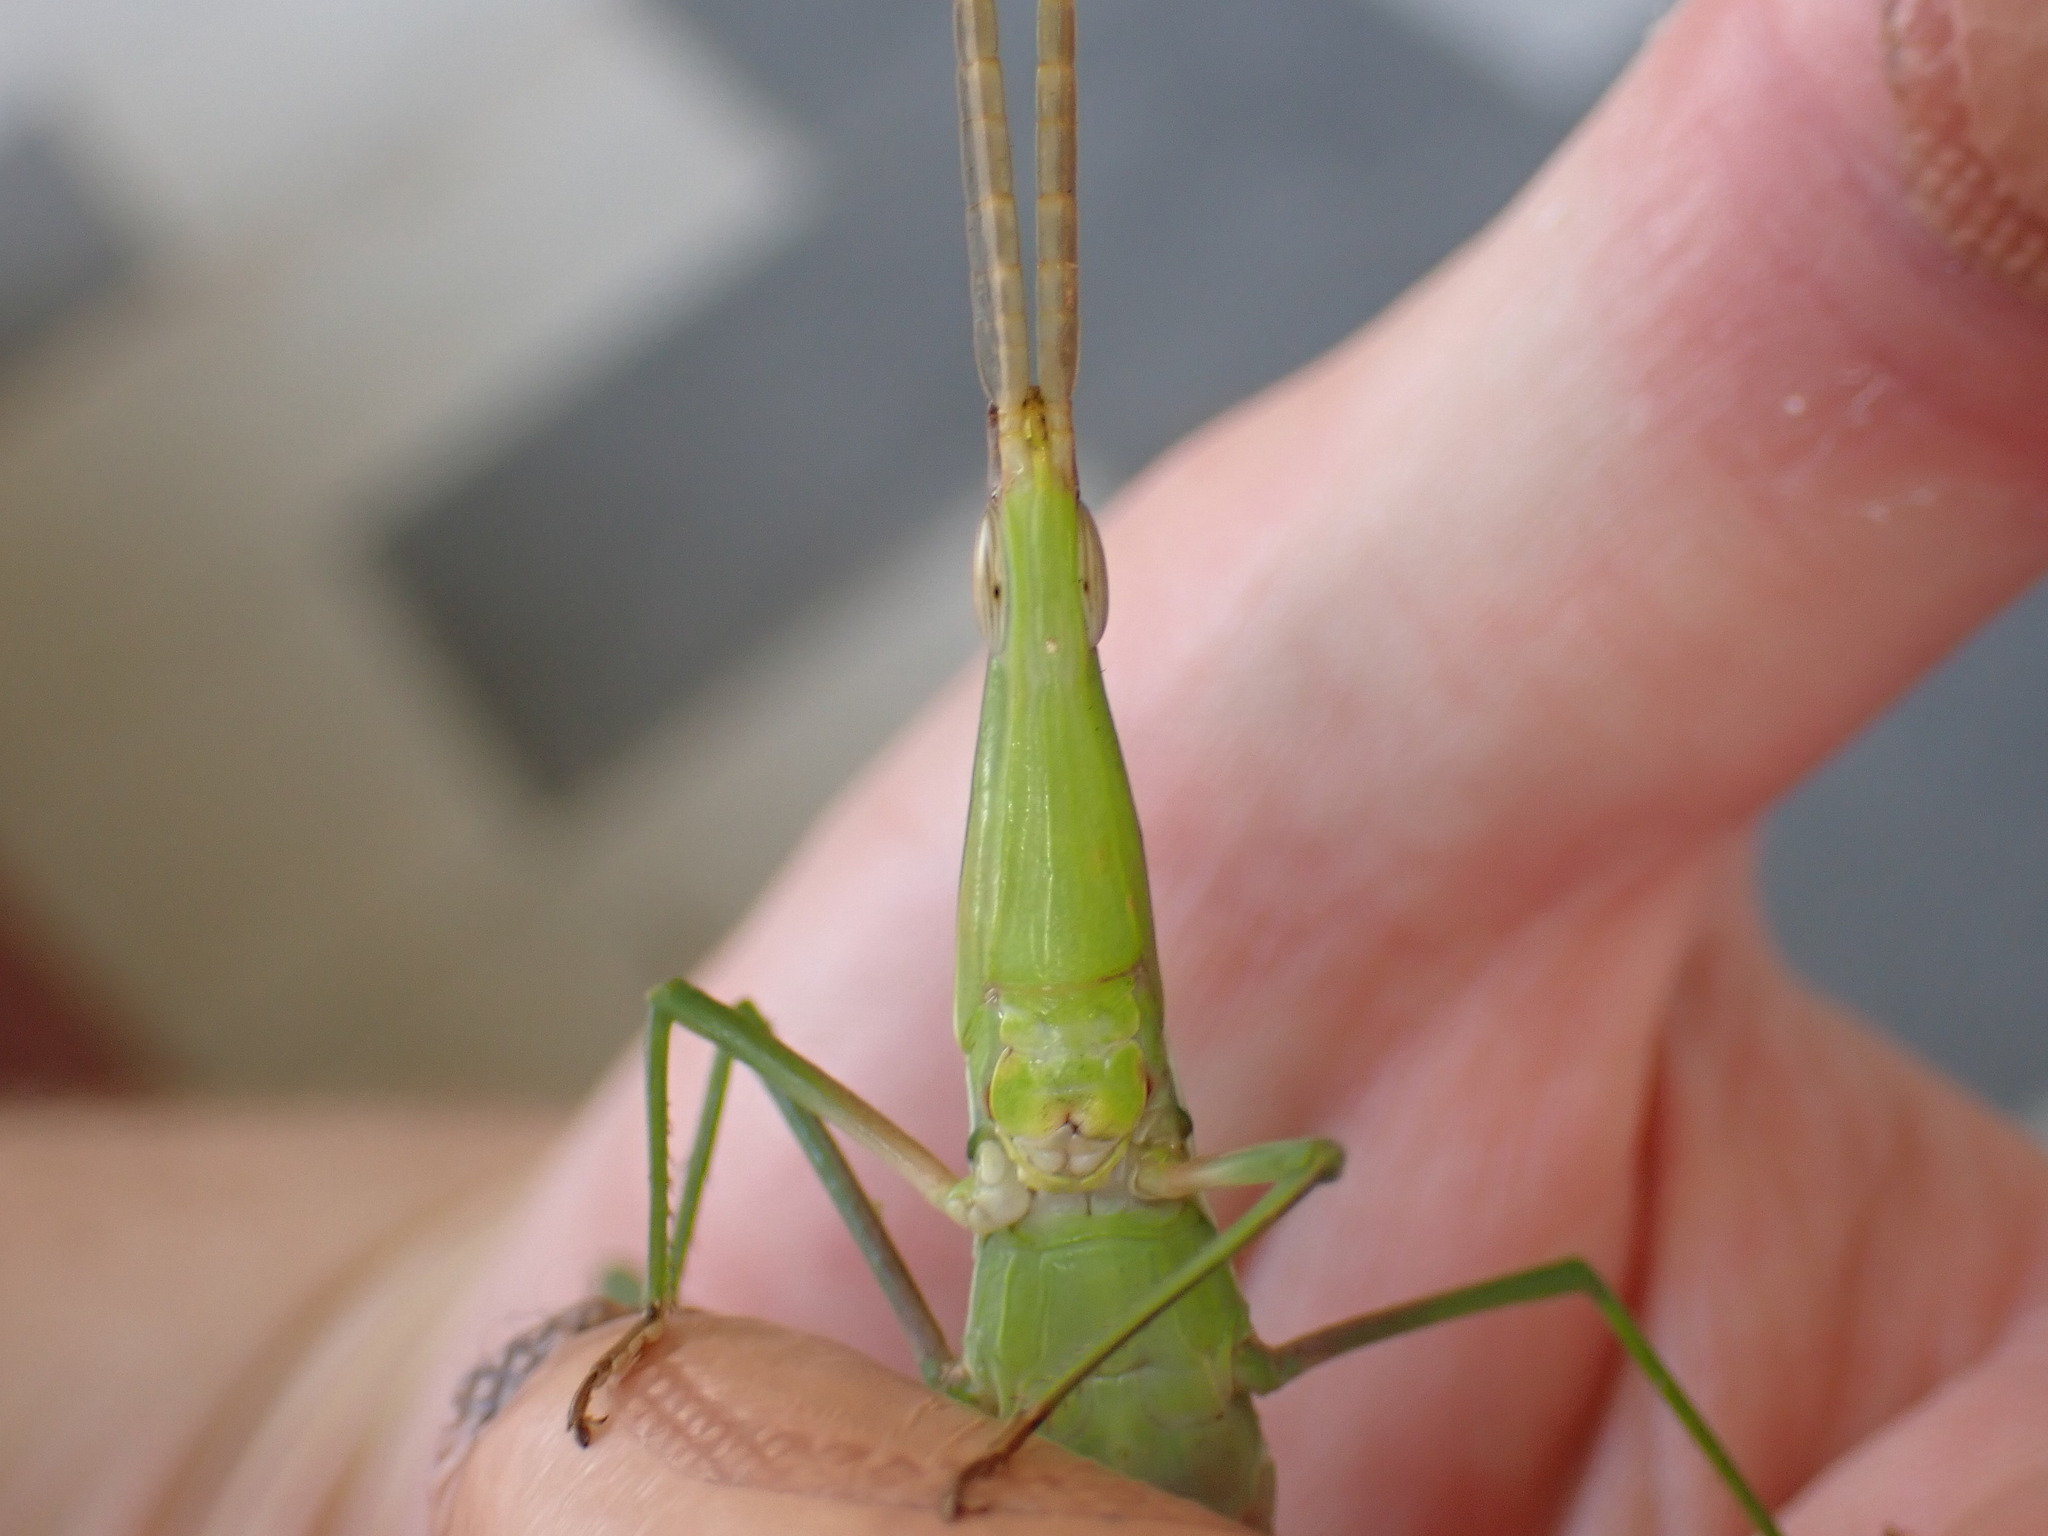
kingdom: Animalia
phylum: Arthropoda
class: Insecta
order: Orthoptera
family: Acrididae
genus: Acrida
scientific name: Acrida conica
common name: Giant green slantface
